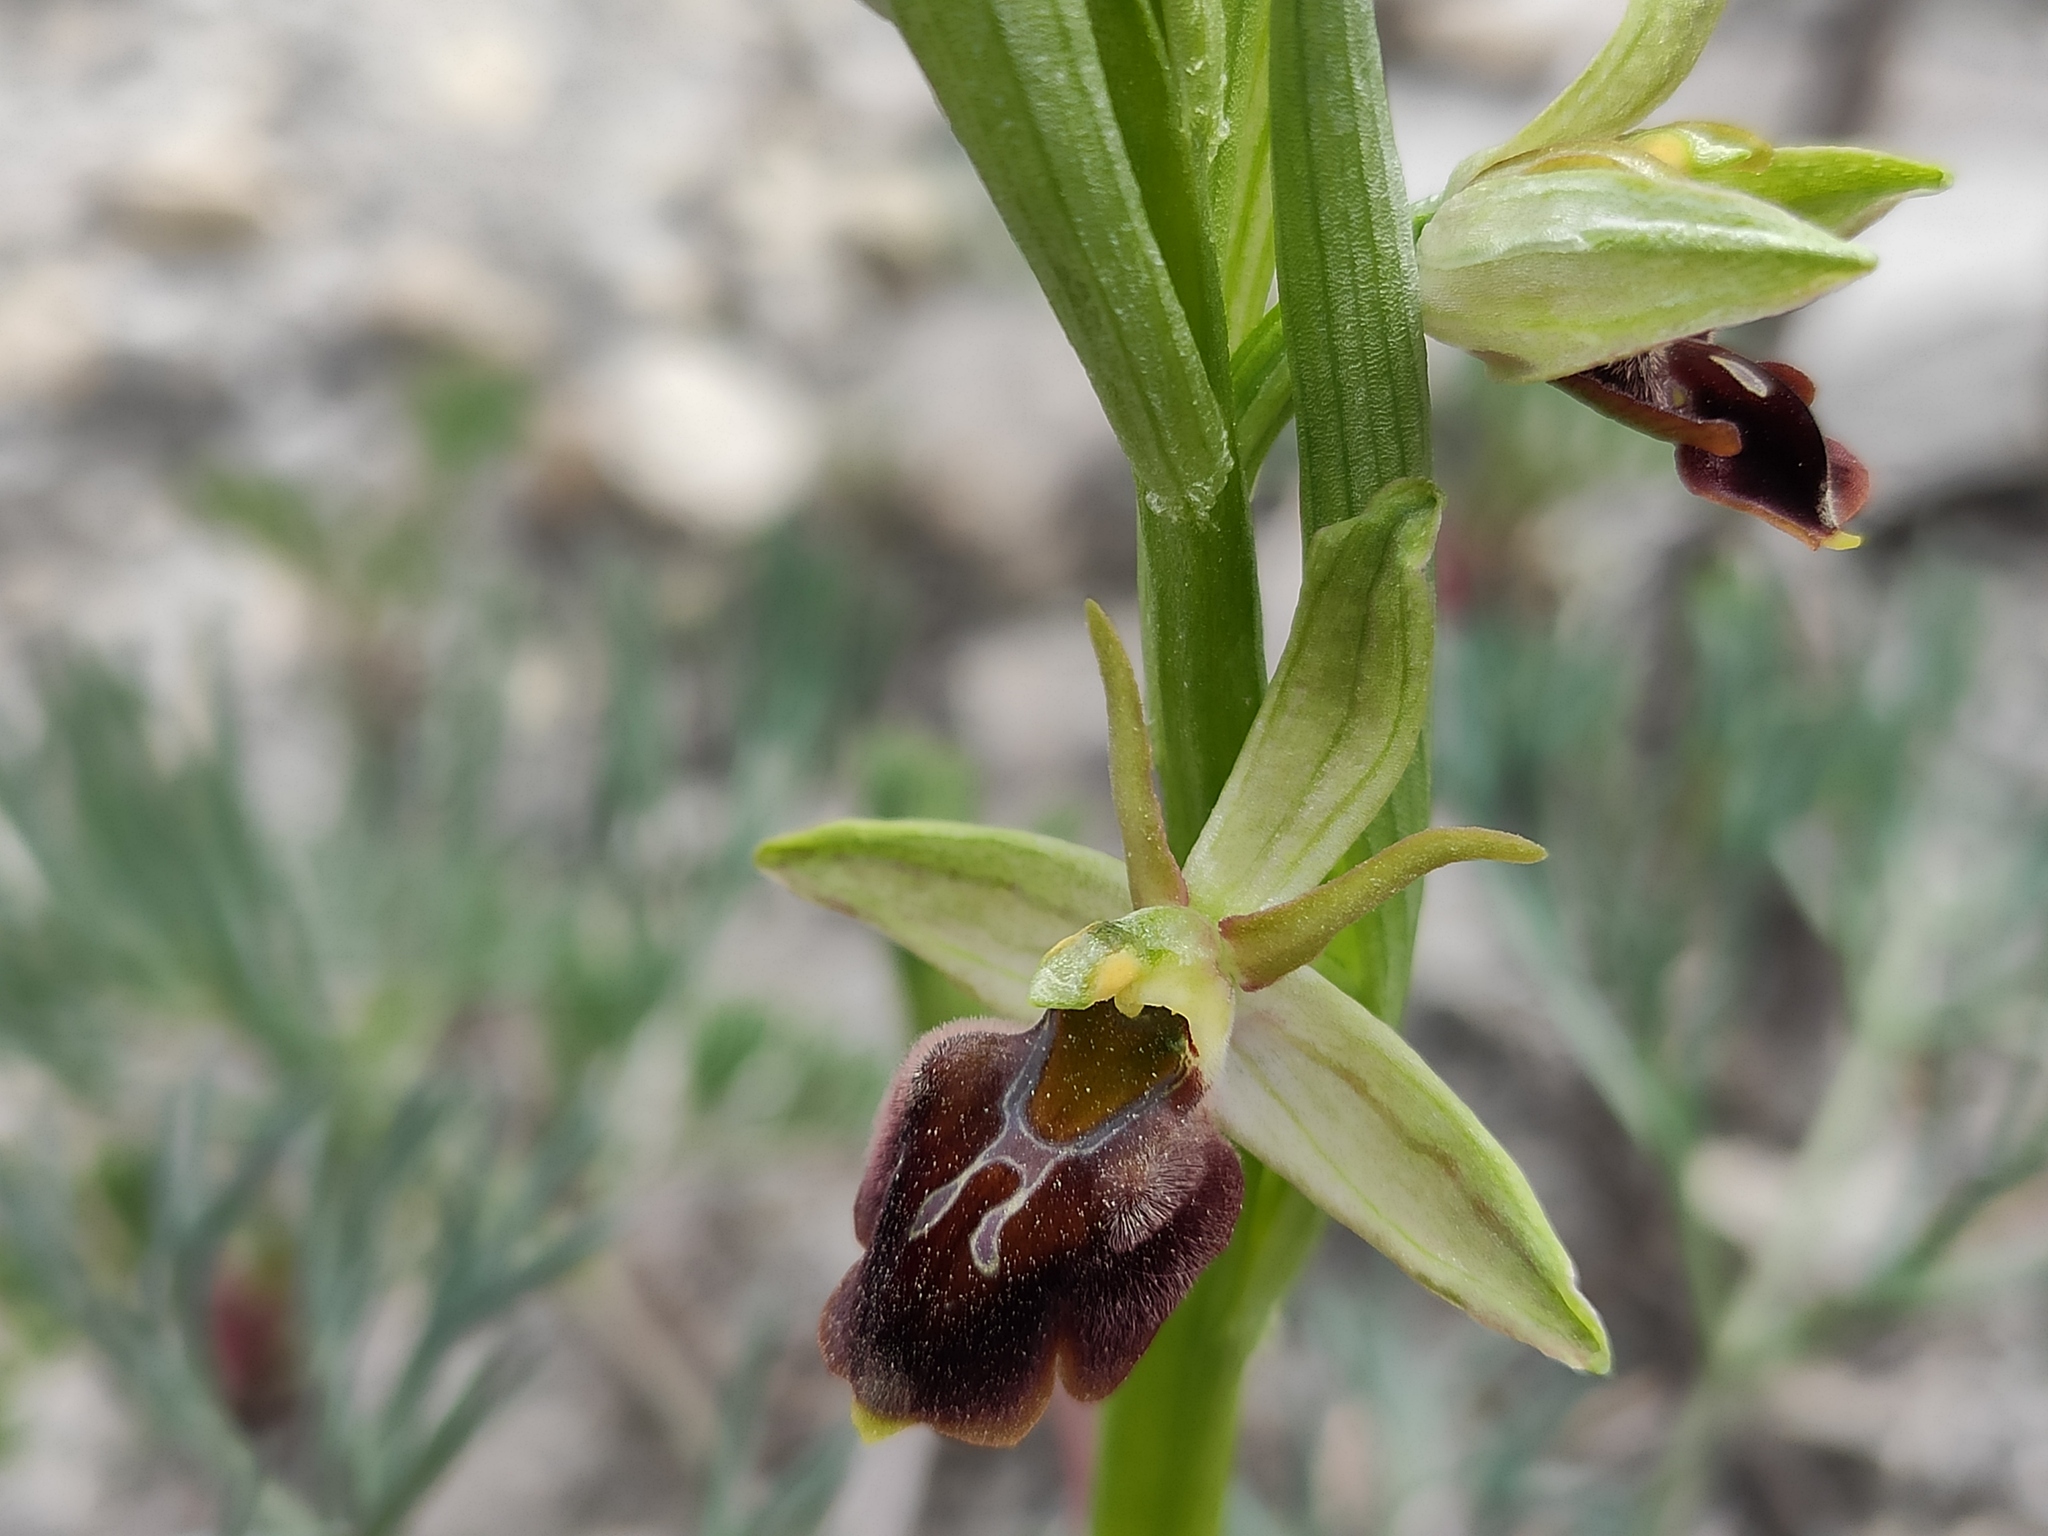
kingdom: Plantae
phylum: Tracheophyta
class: Liliopsida
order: Asparagales
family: Orchidaceae
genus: Ophrys
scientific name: Ophrys sphegodes
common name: Early spider-orchid
